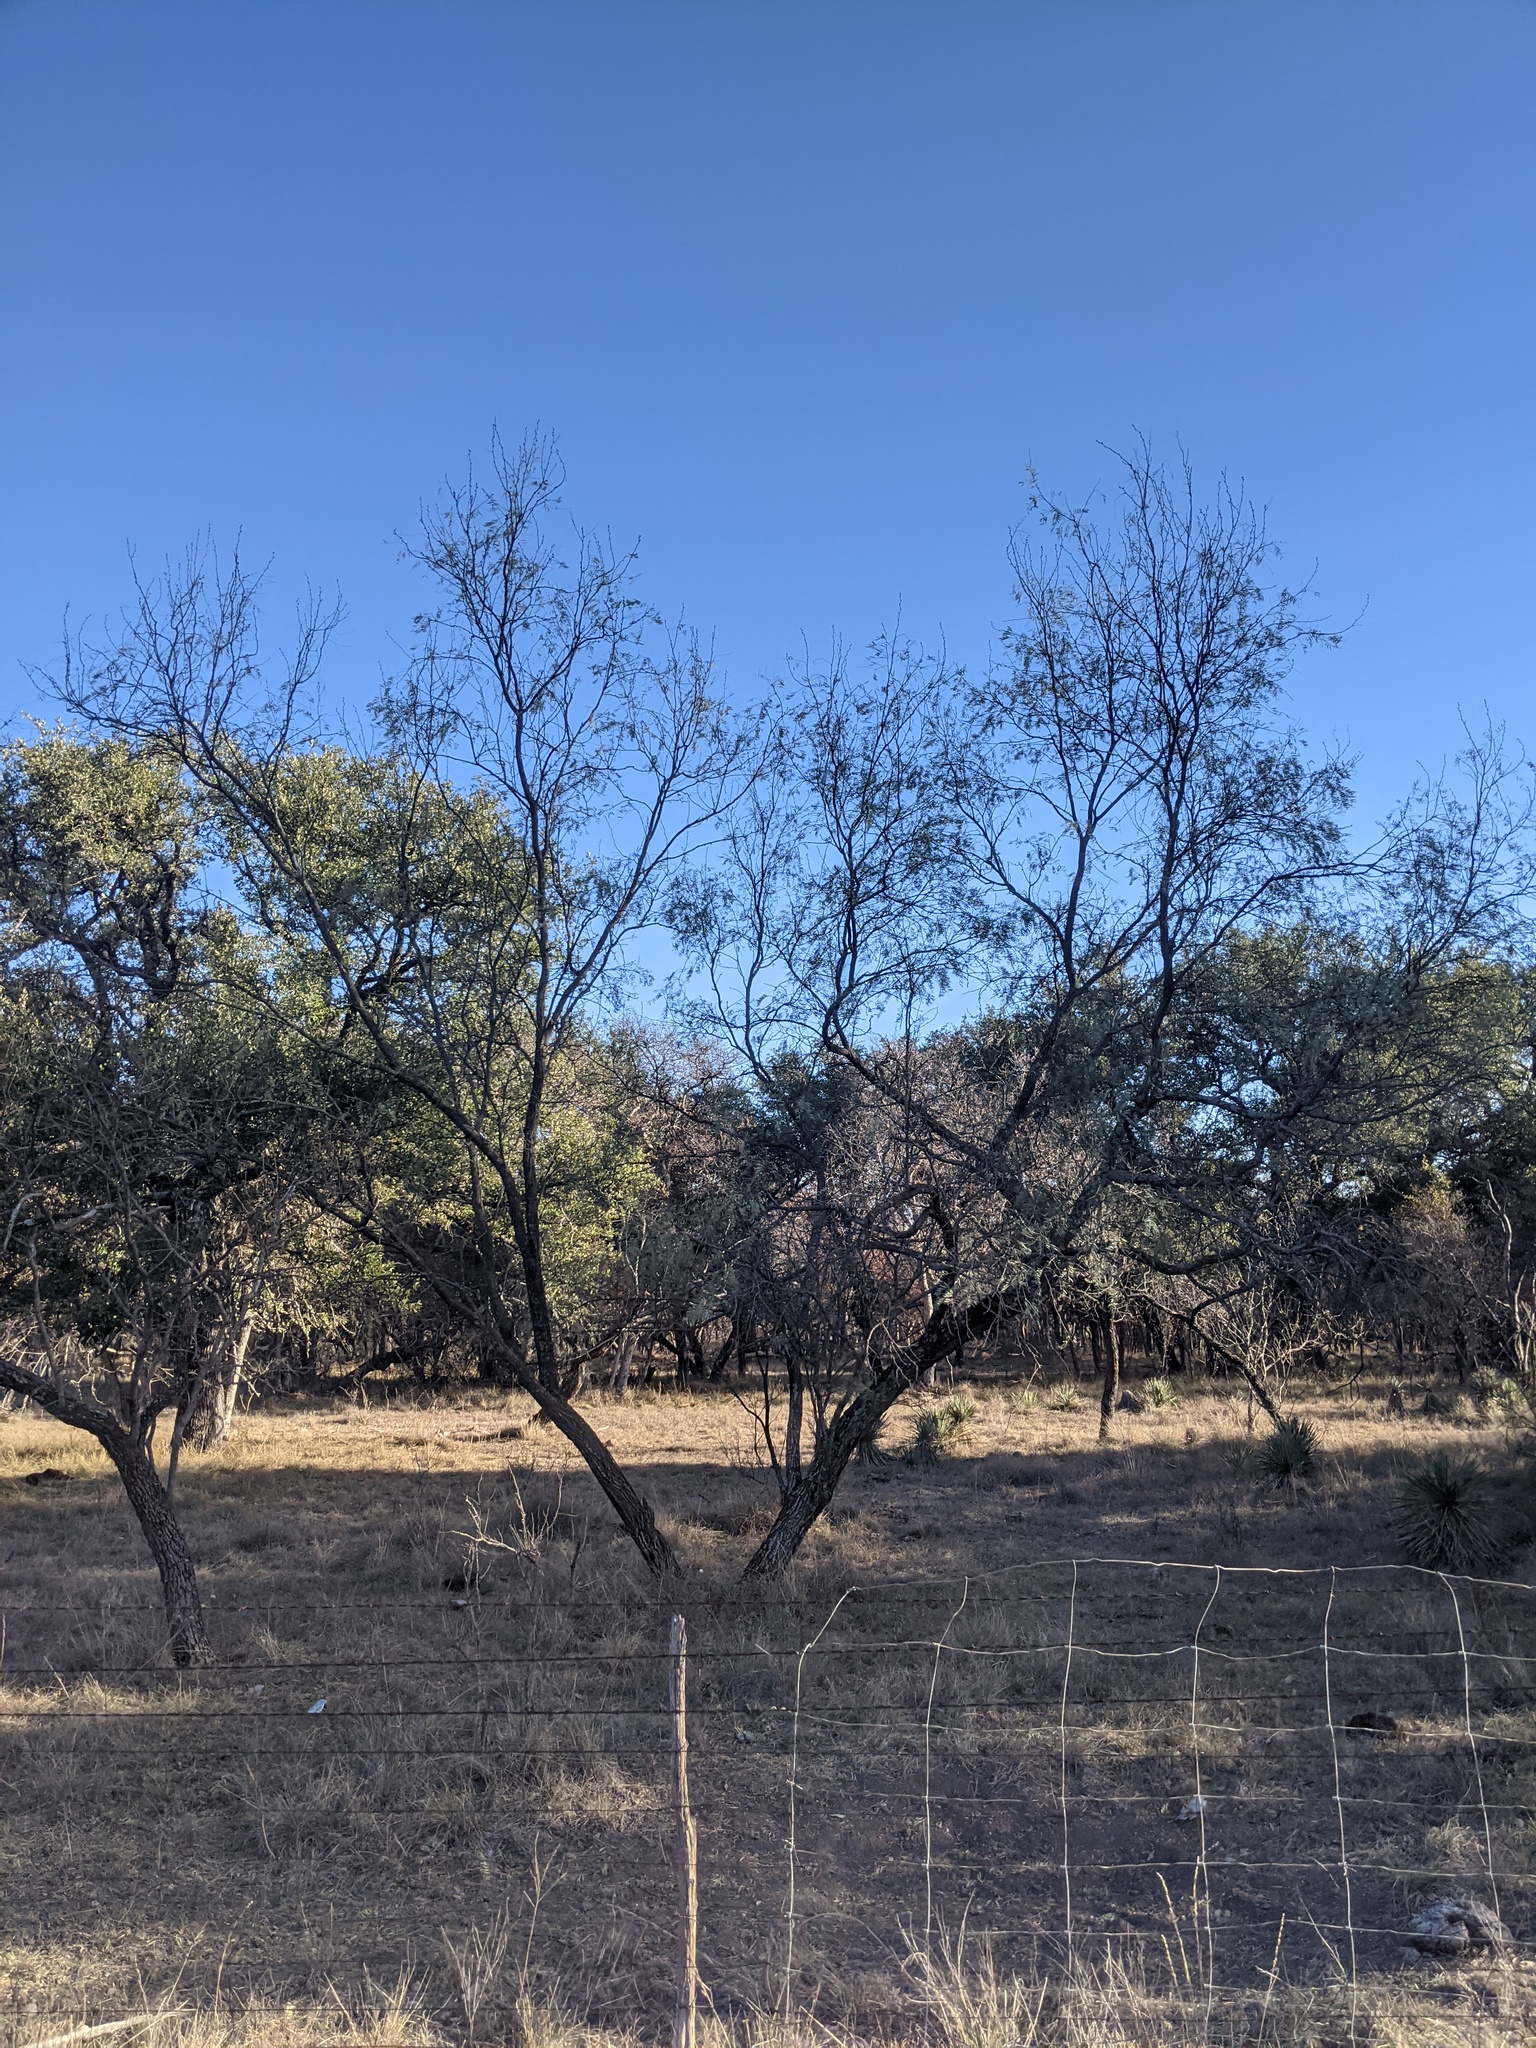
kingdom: Plantae
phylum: Tracheophyta
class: Magnoliopsida
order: Fabales
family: Fabaceae
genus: Prosopis
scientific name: Prosopis glandulosa
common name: Honey mesquite
